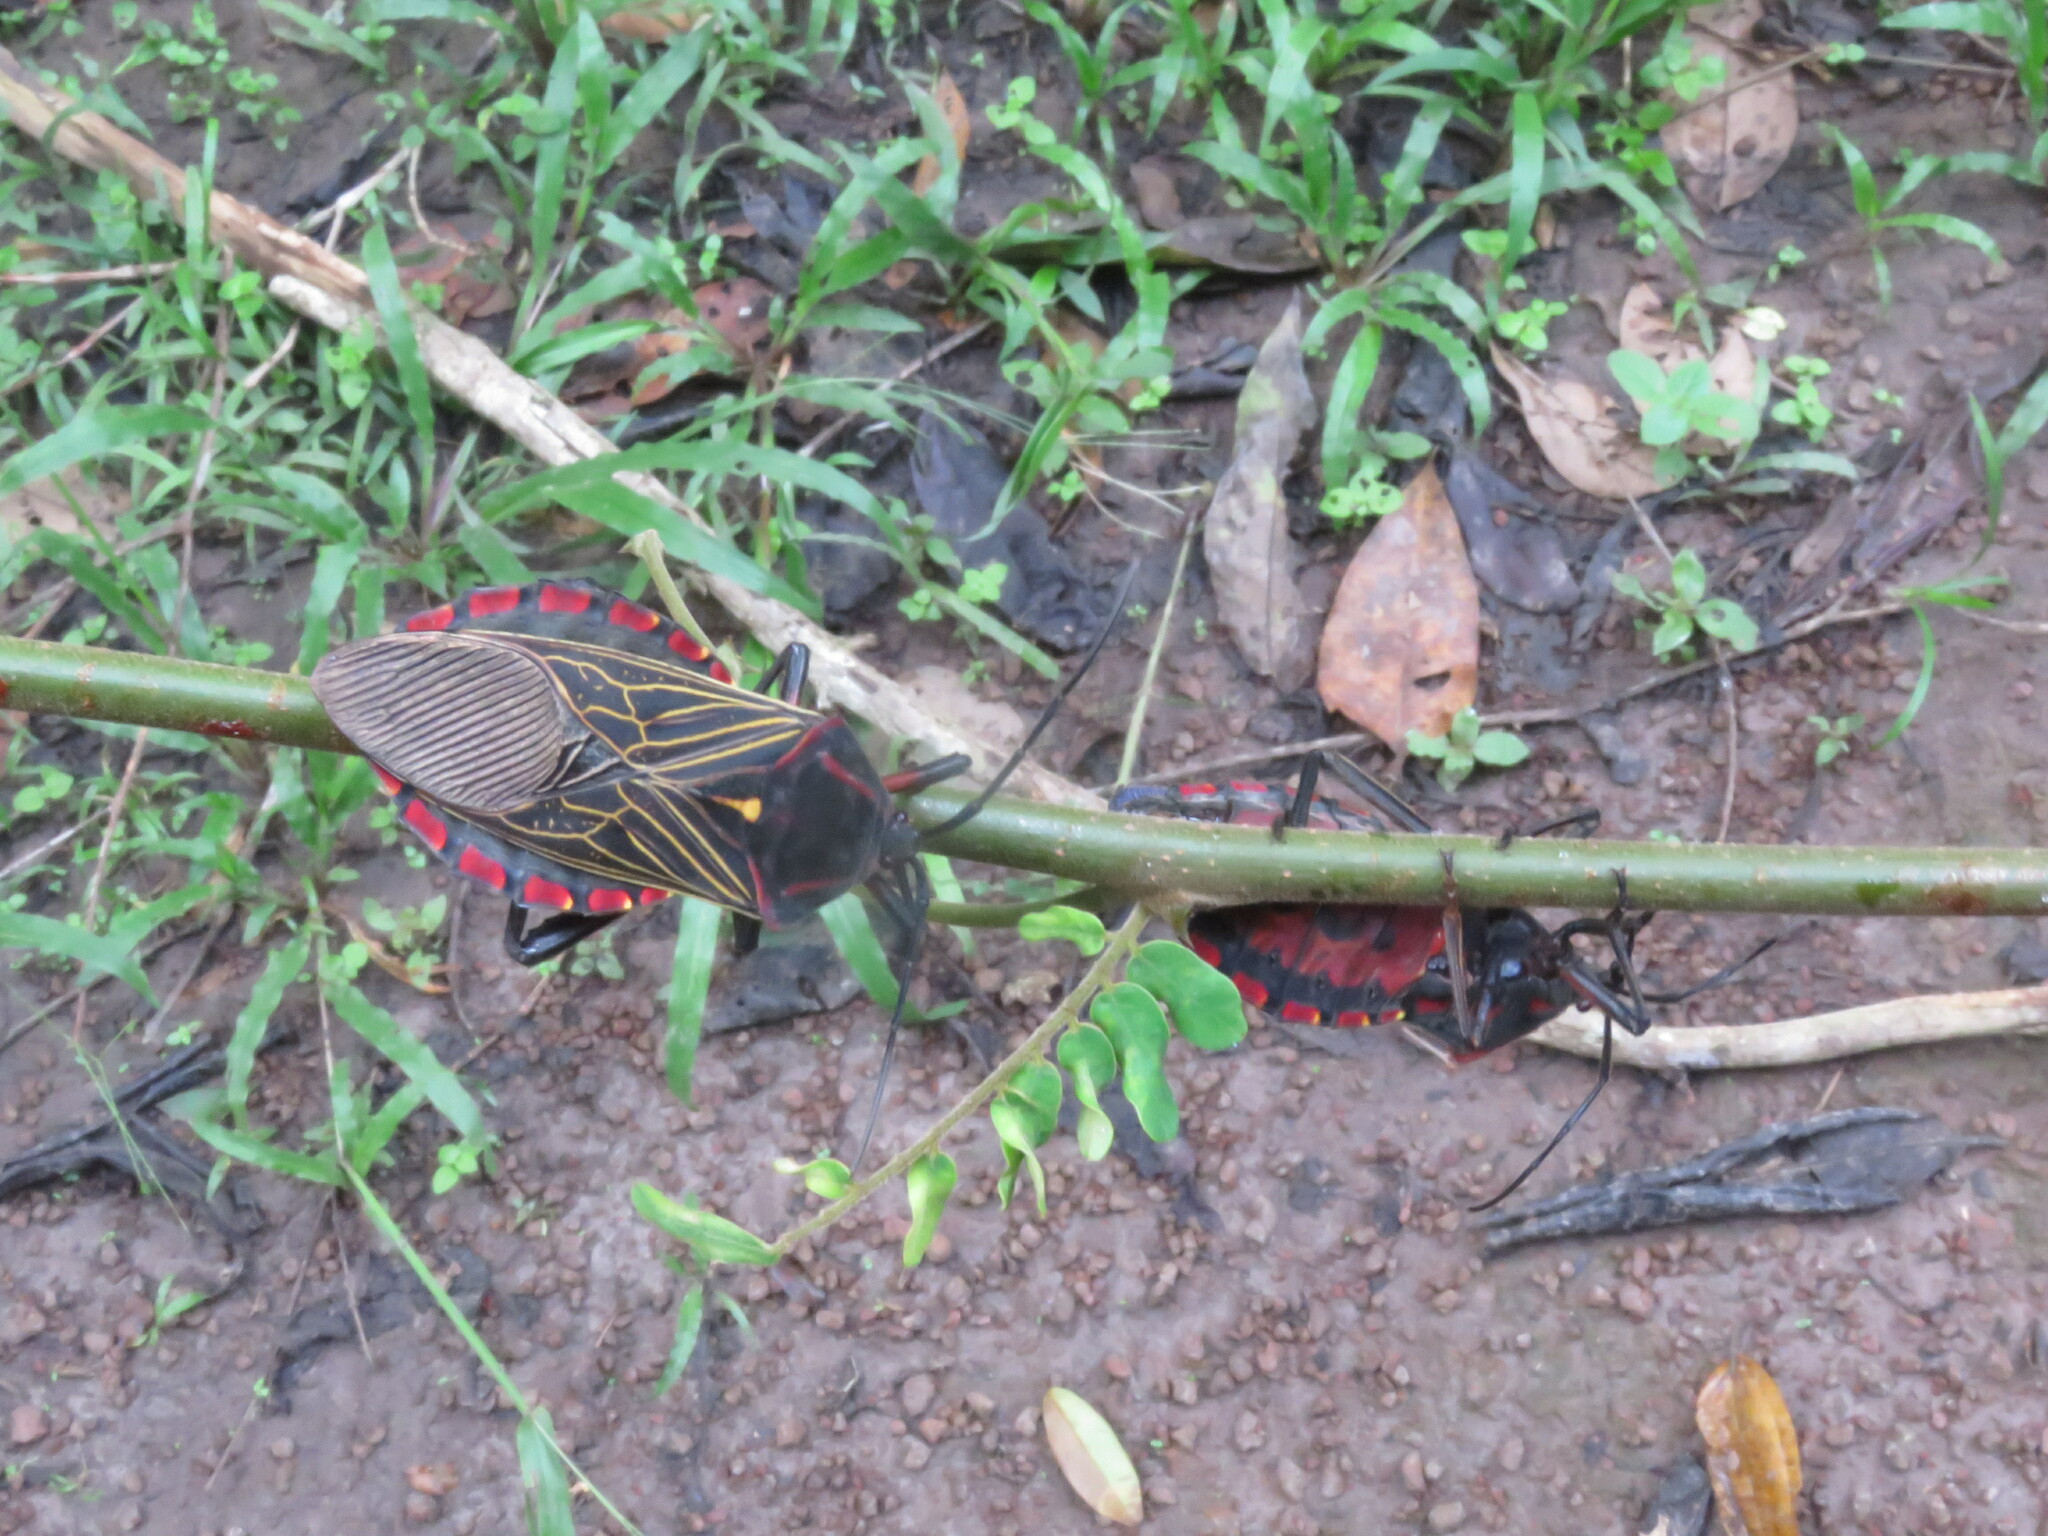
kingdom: Animalia
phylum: Arthropoda
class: Insecta
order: Hemiptera
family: Coreidae
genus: Pachylis
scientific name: Pachylis pharaonis
